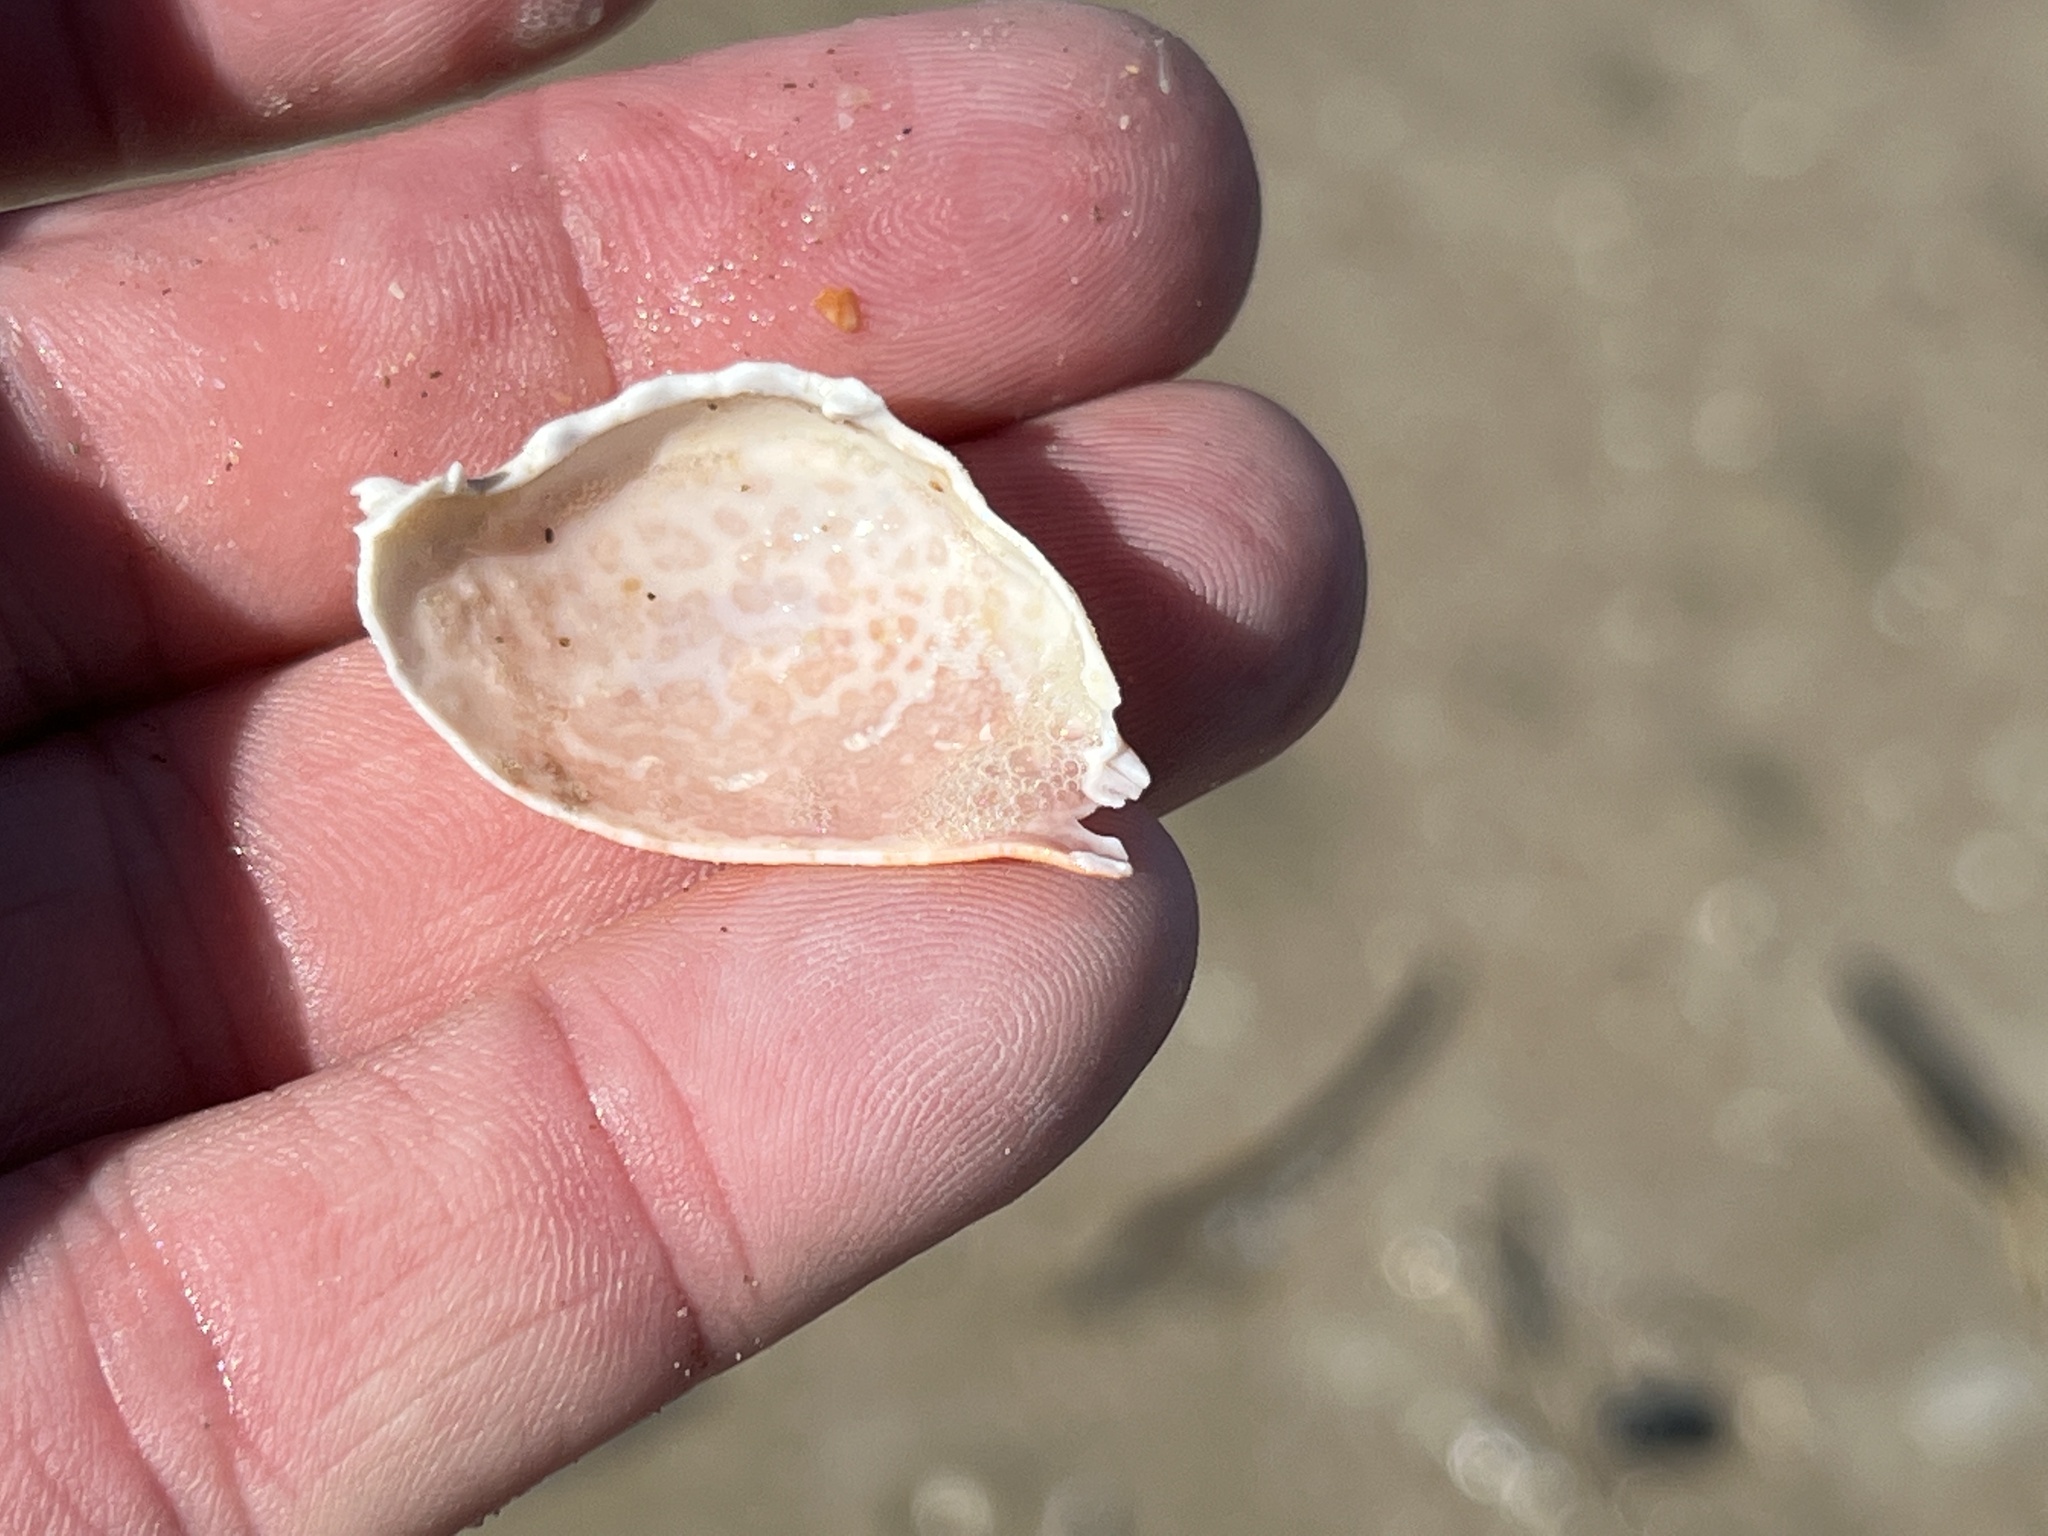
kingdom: Animalia
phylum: Arthropoda
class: Malacostraca
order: Decapoda
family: Leucosiidae
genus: Persephona
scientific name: Persephona aquilonaris
